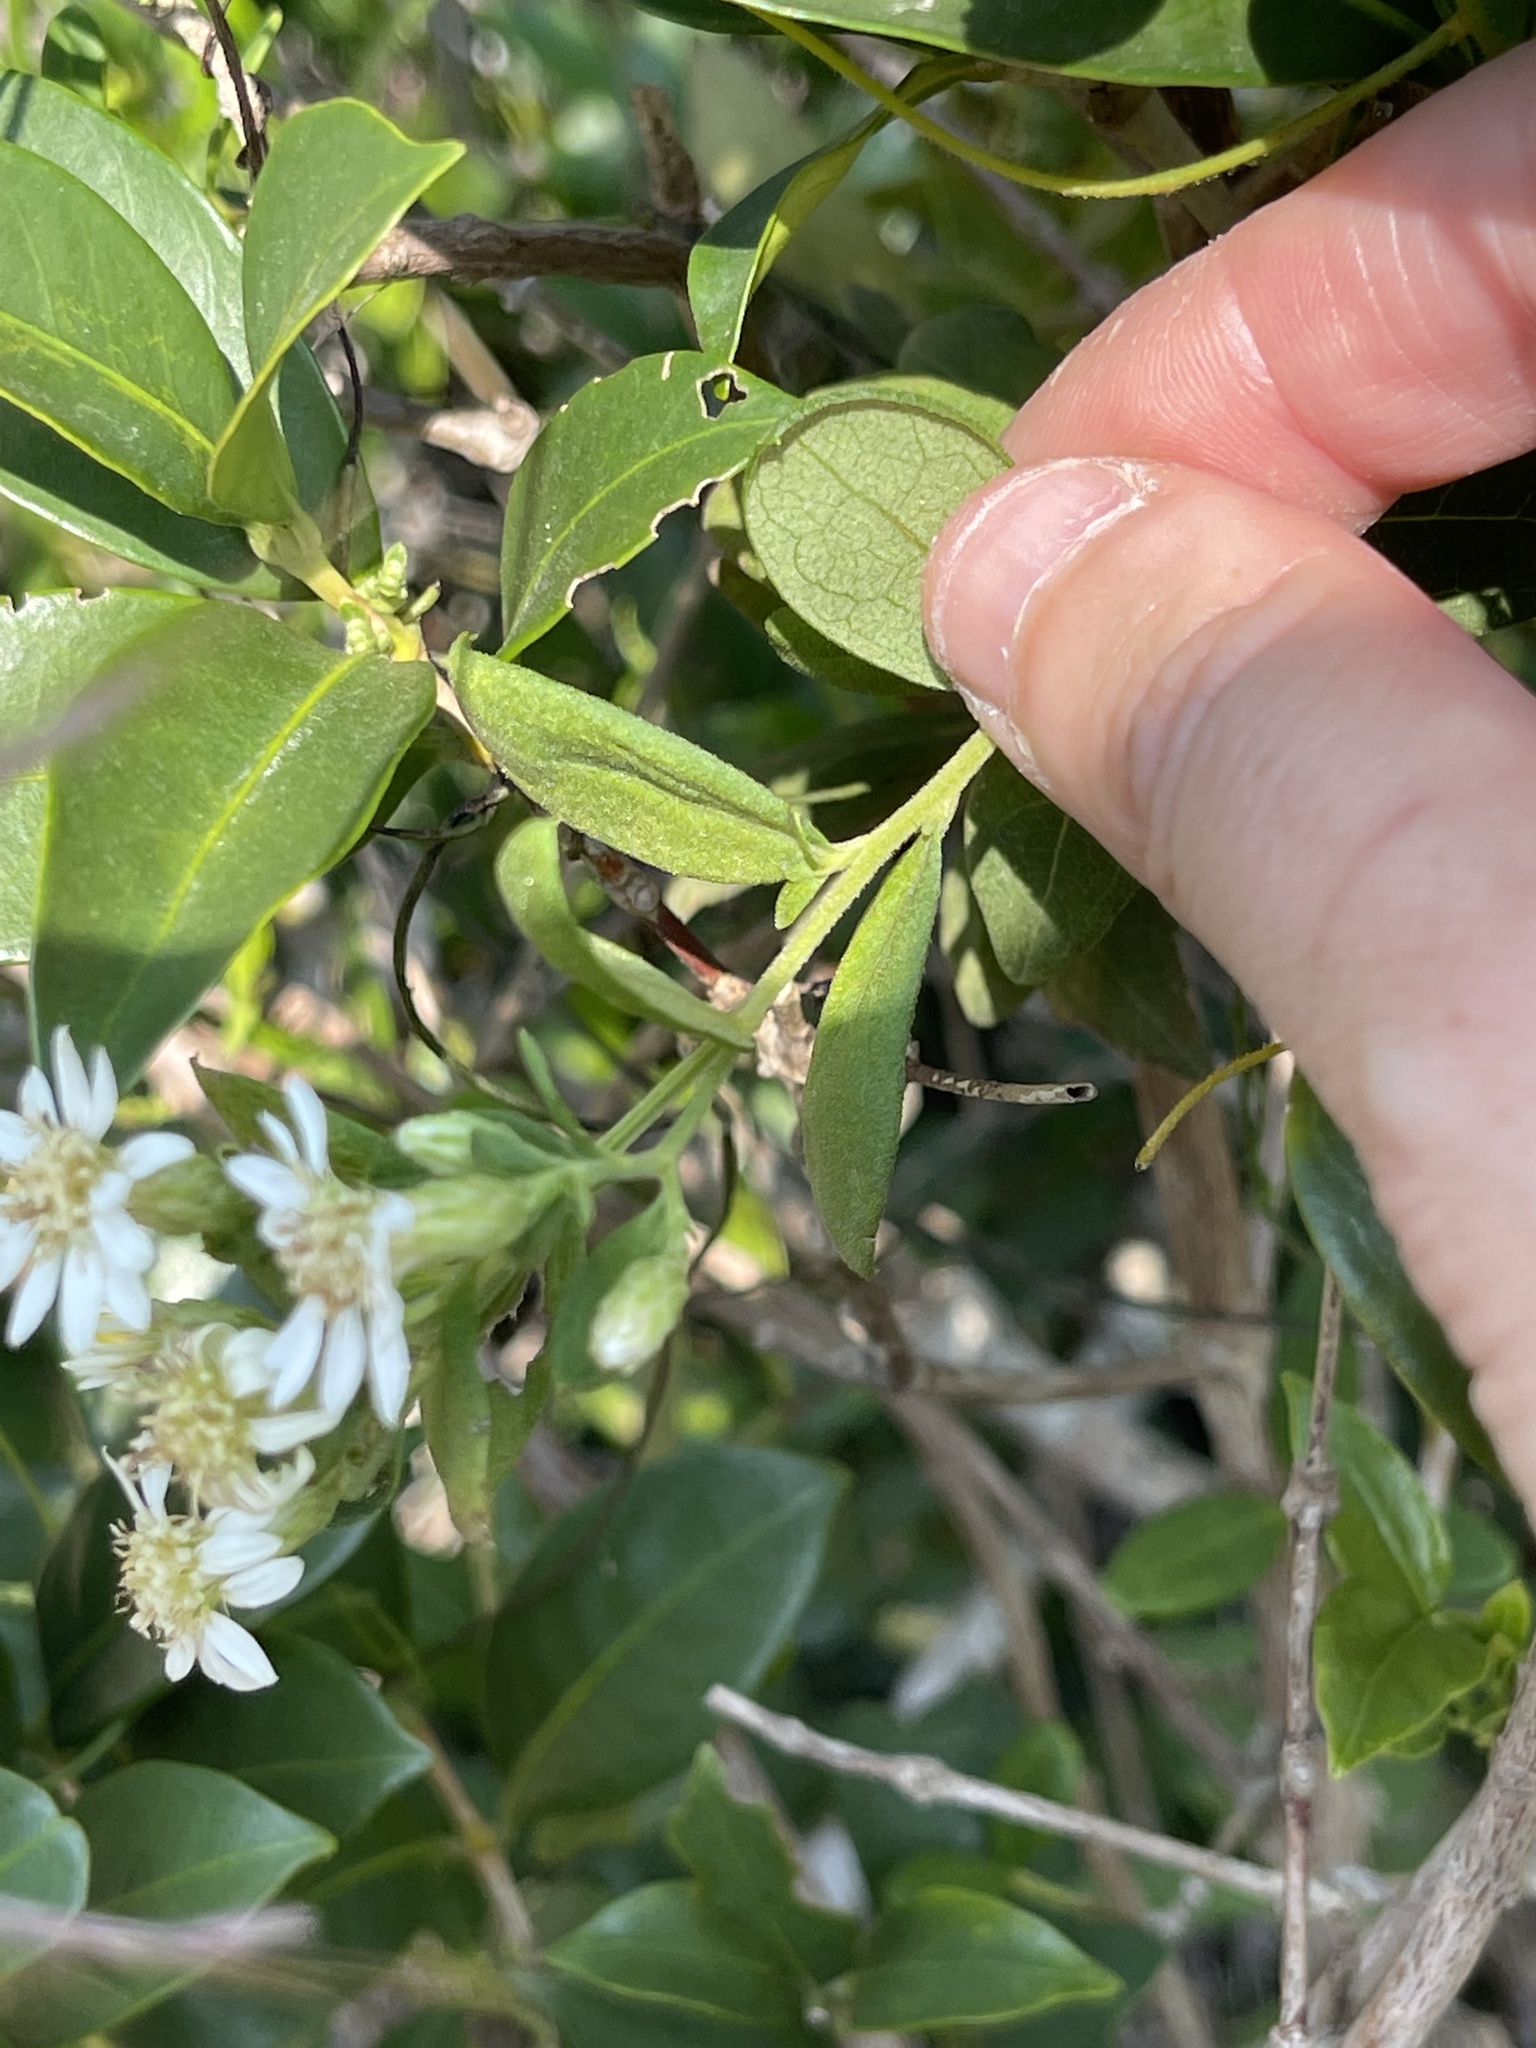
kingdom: Plantae
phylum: Tracheophyta
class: Magnoliopsida
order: Asterales
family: Asteraceae
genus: Aster
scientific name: Aster baccharoides
